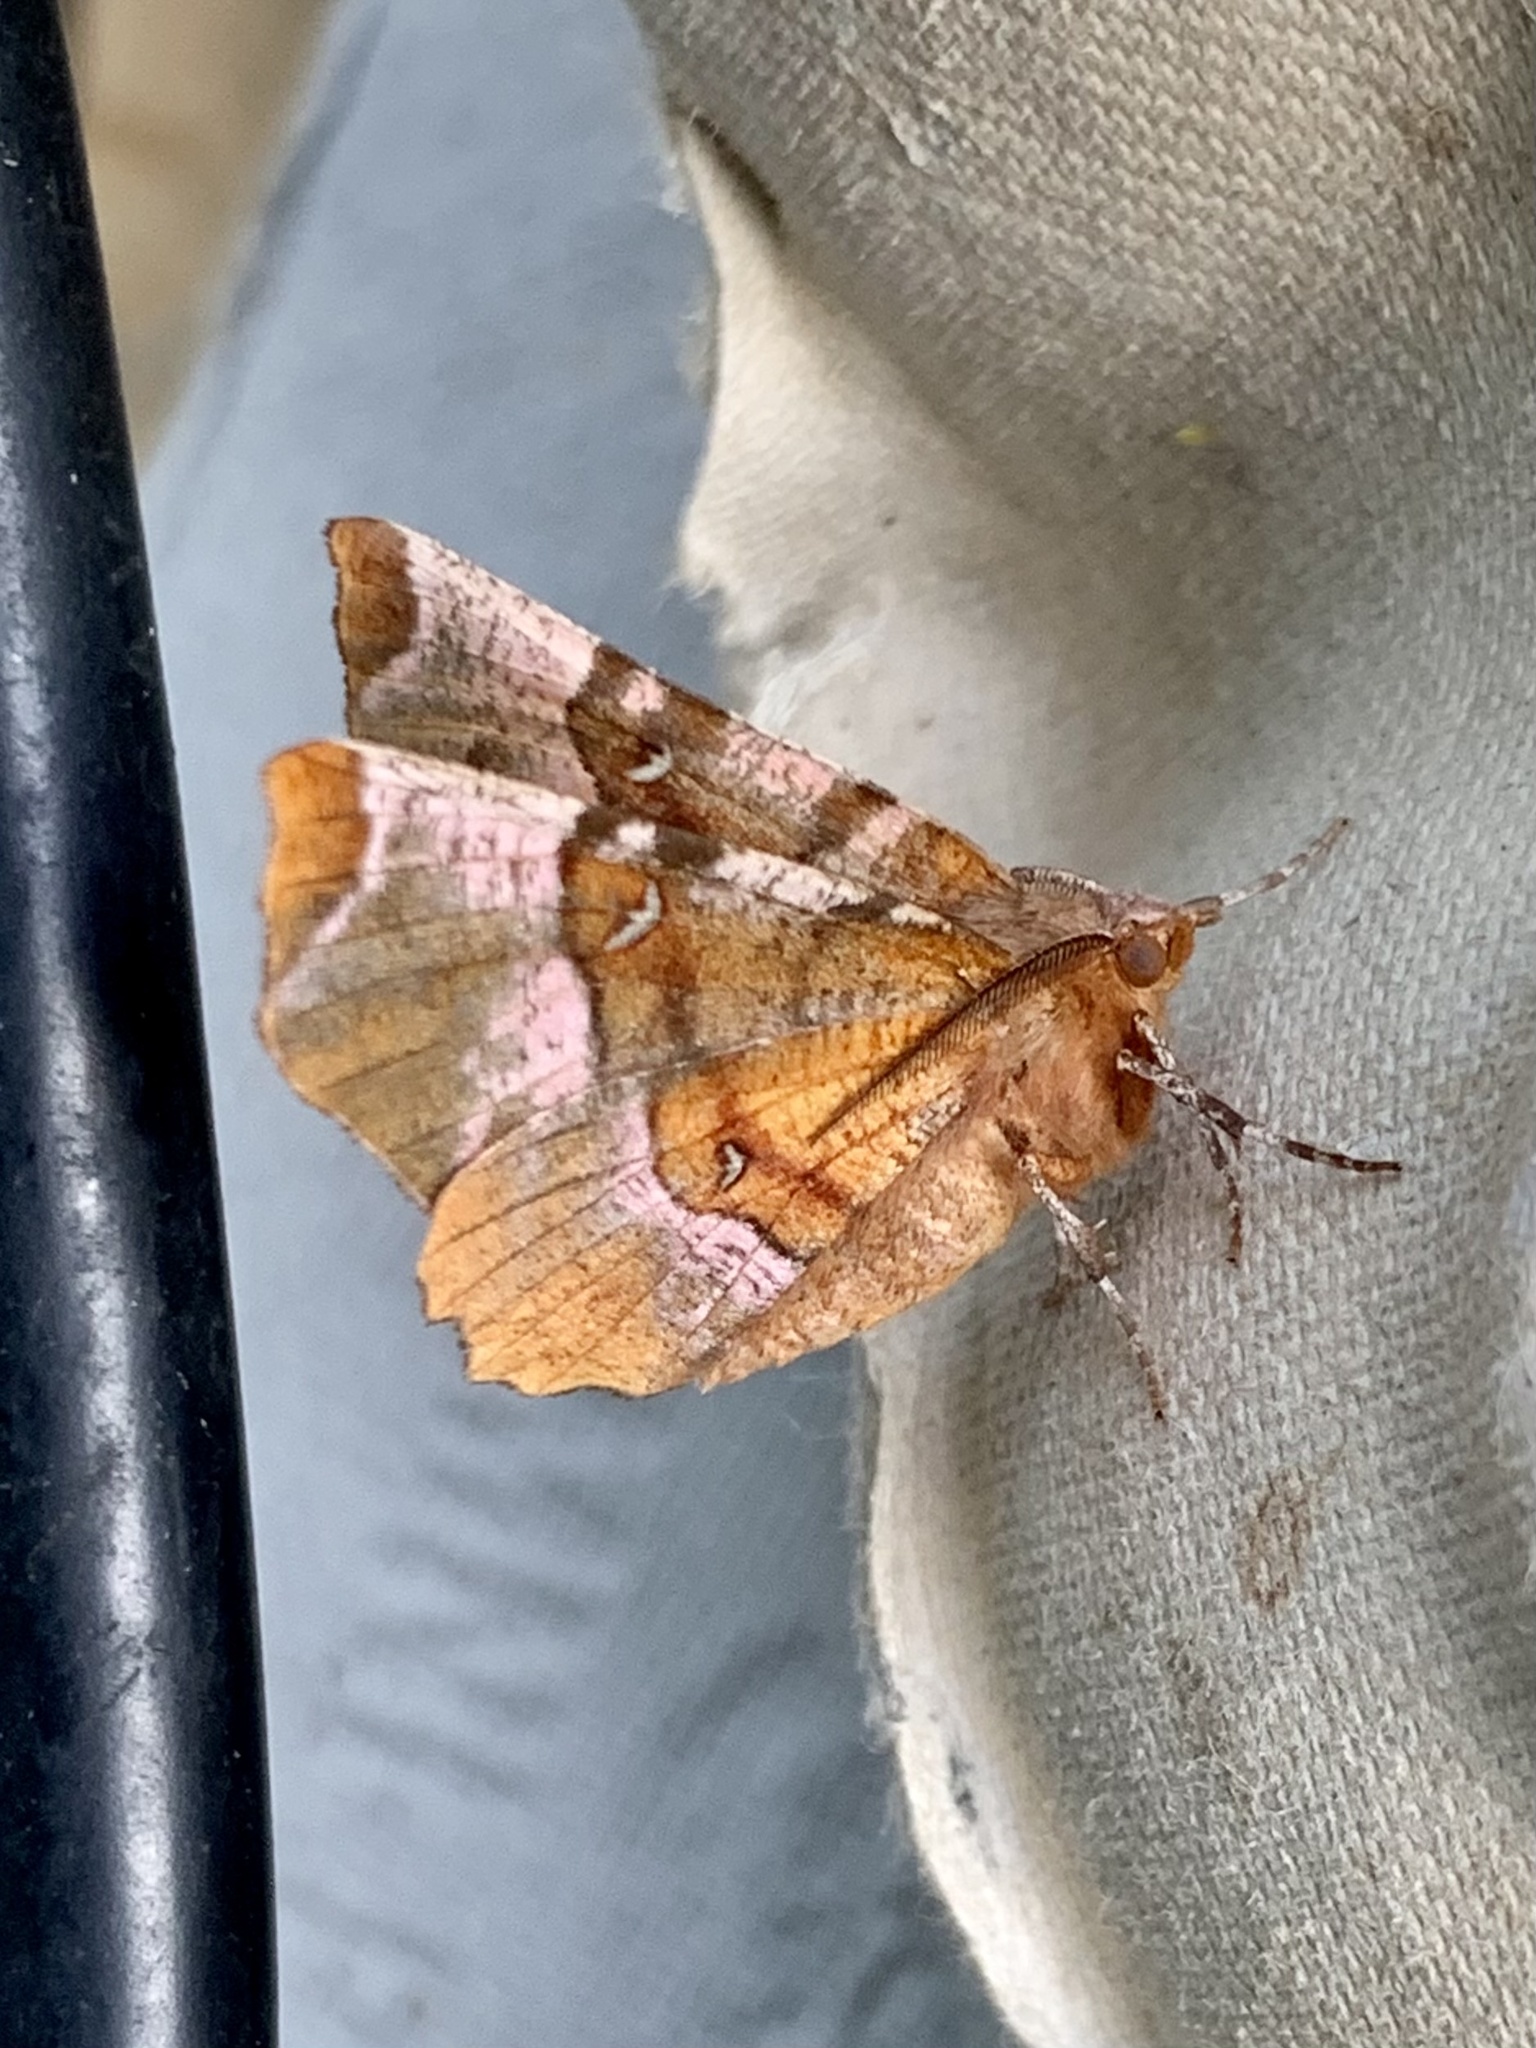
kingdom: Animalia
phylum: Arthropoda
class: Insecta
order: Lepidoptera
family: Geometridae
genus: Selenia
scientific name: Selenia tetralunaria
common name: Purple thorn
